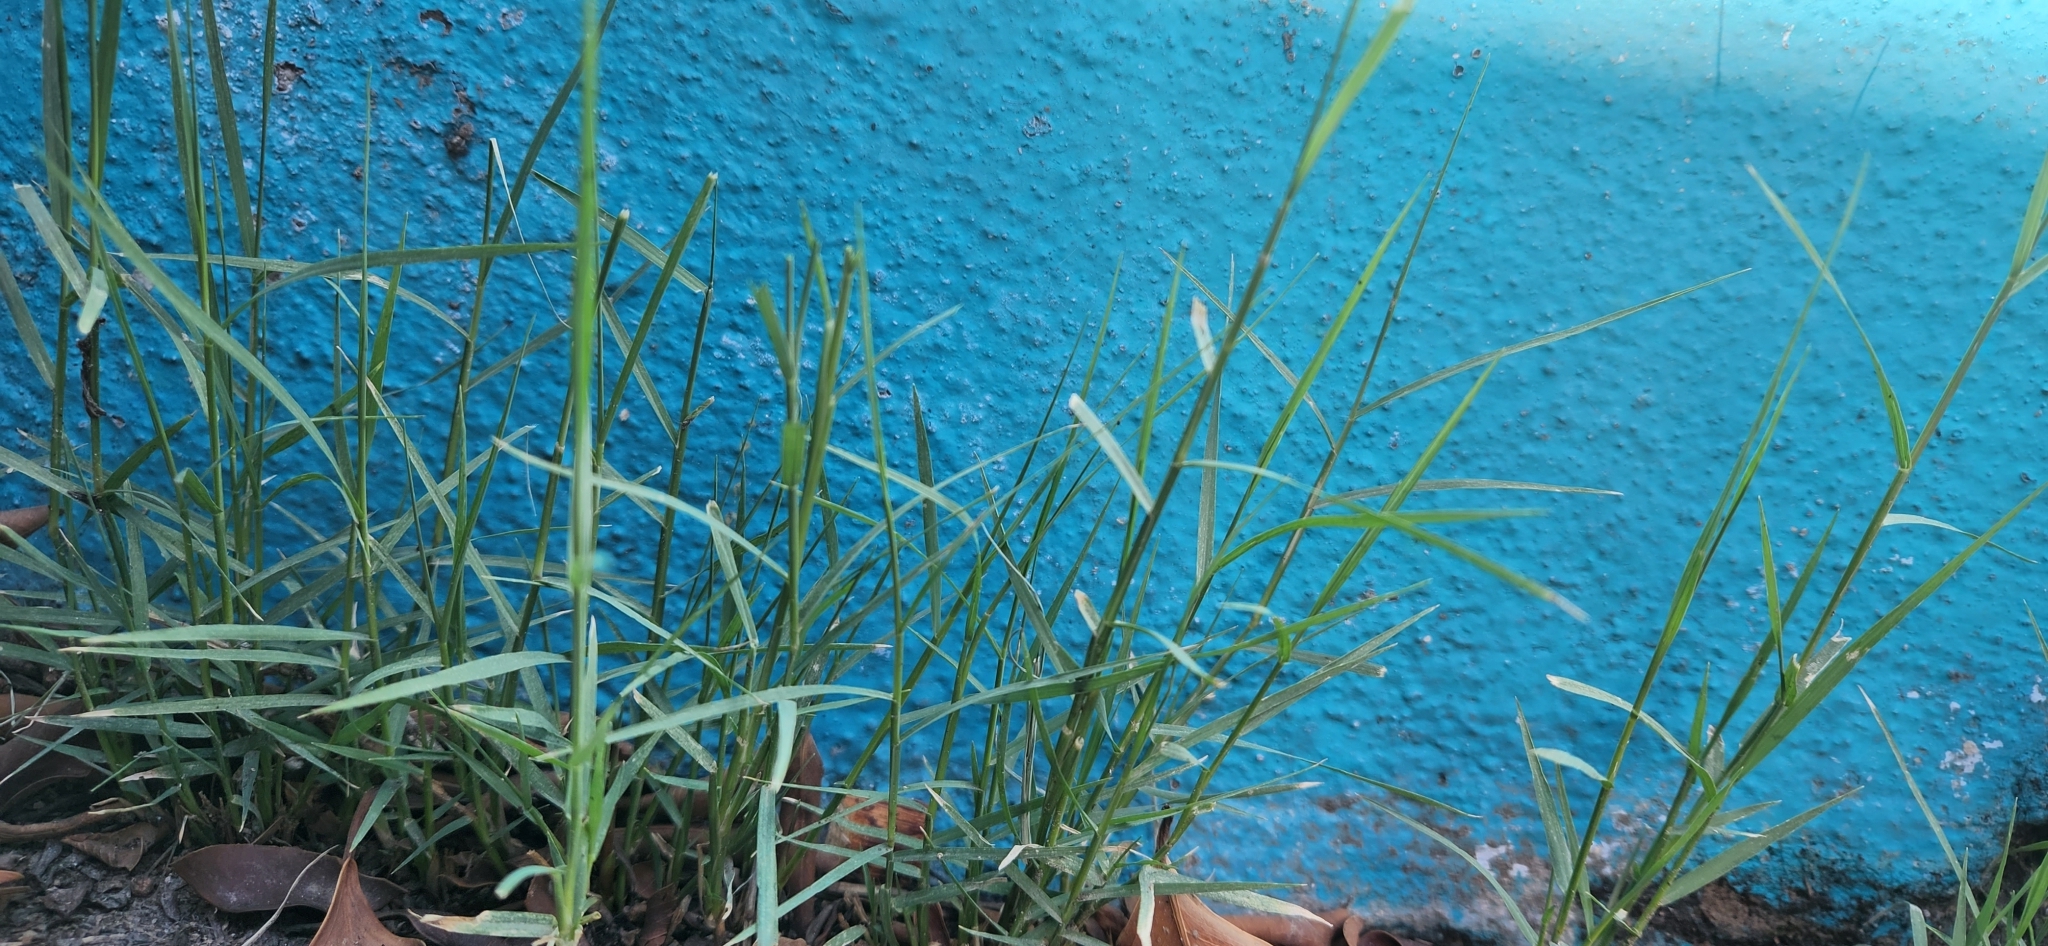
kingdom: Plantae
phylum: Tracheophyta
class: Liliopsida
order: Poales
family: Poaceae
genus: Cynodon
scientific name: Cynodon dactylon
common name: Bermuda grass
